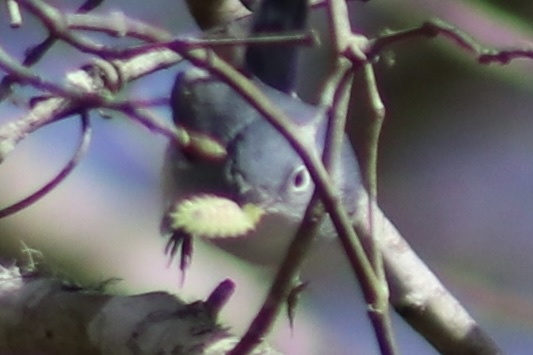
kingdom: Animalia
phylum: Chordata
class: Aves
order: Passeriformes
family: Polioptilidae
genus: Polioptila
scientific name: Polioptila caerulea
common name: Blue-gray gnatcatcher
